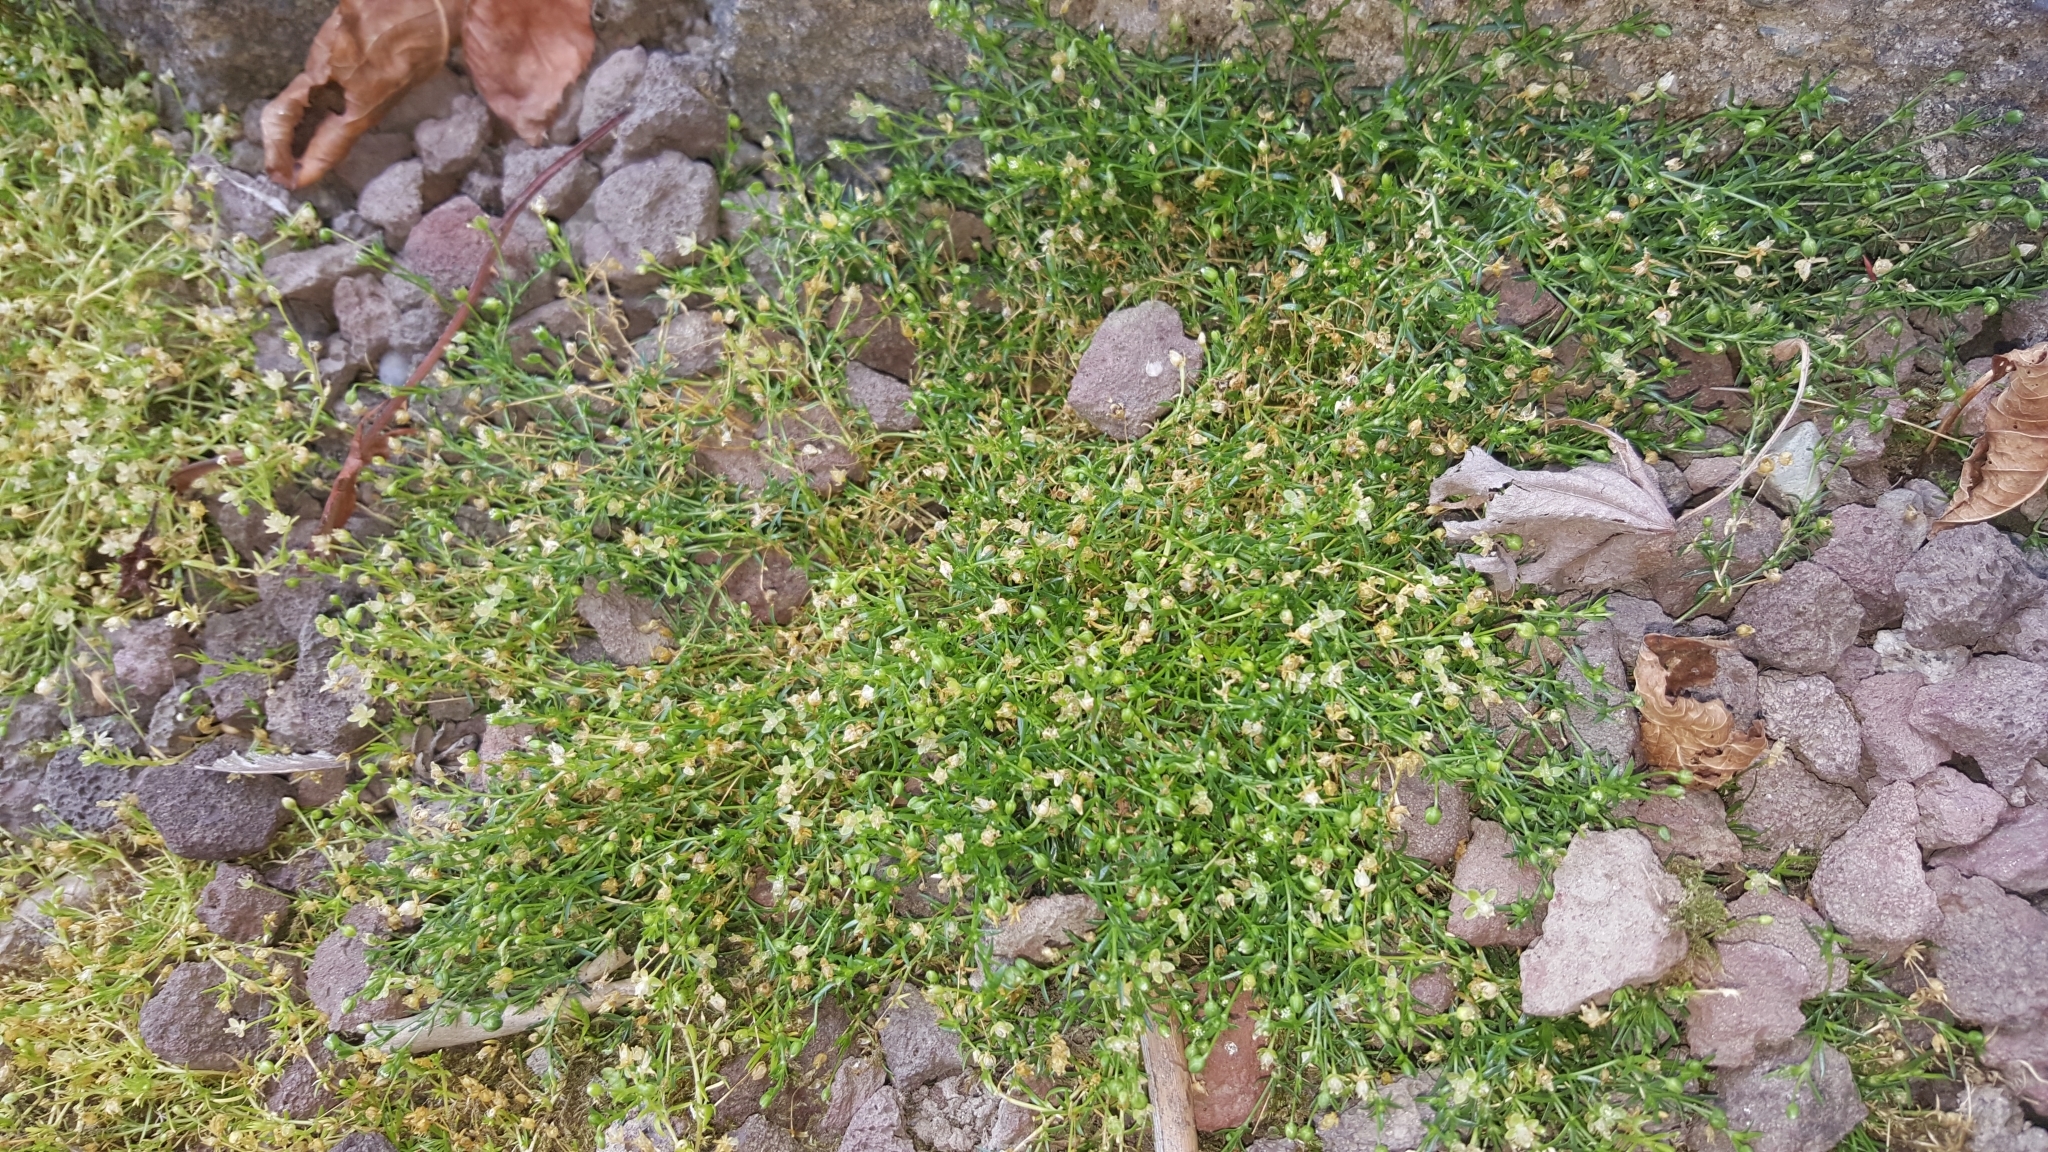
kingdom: Plantae
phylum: Tracheophyta
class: Magnoliopsida
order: Caryophyllales
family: Caryophyllaceae
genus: Sagina
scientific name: Sagina procumbens
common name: Procumbent pearlwort
